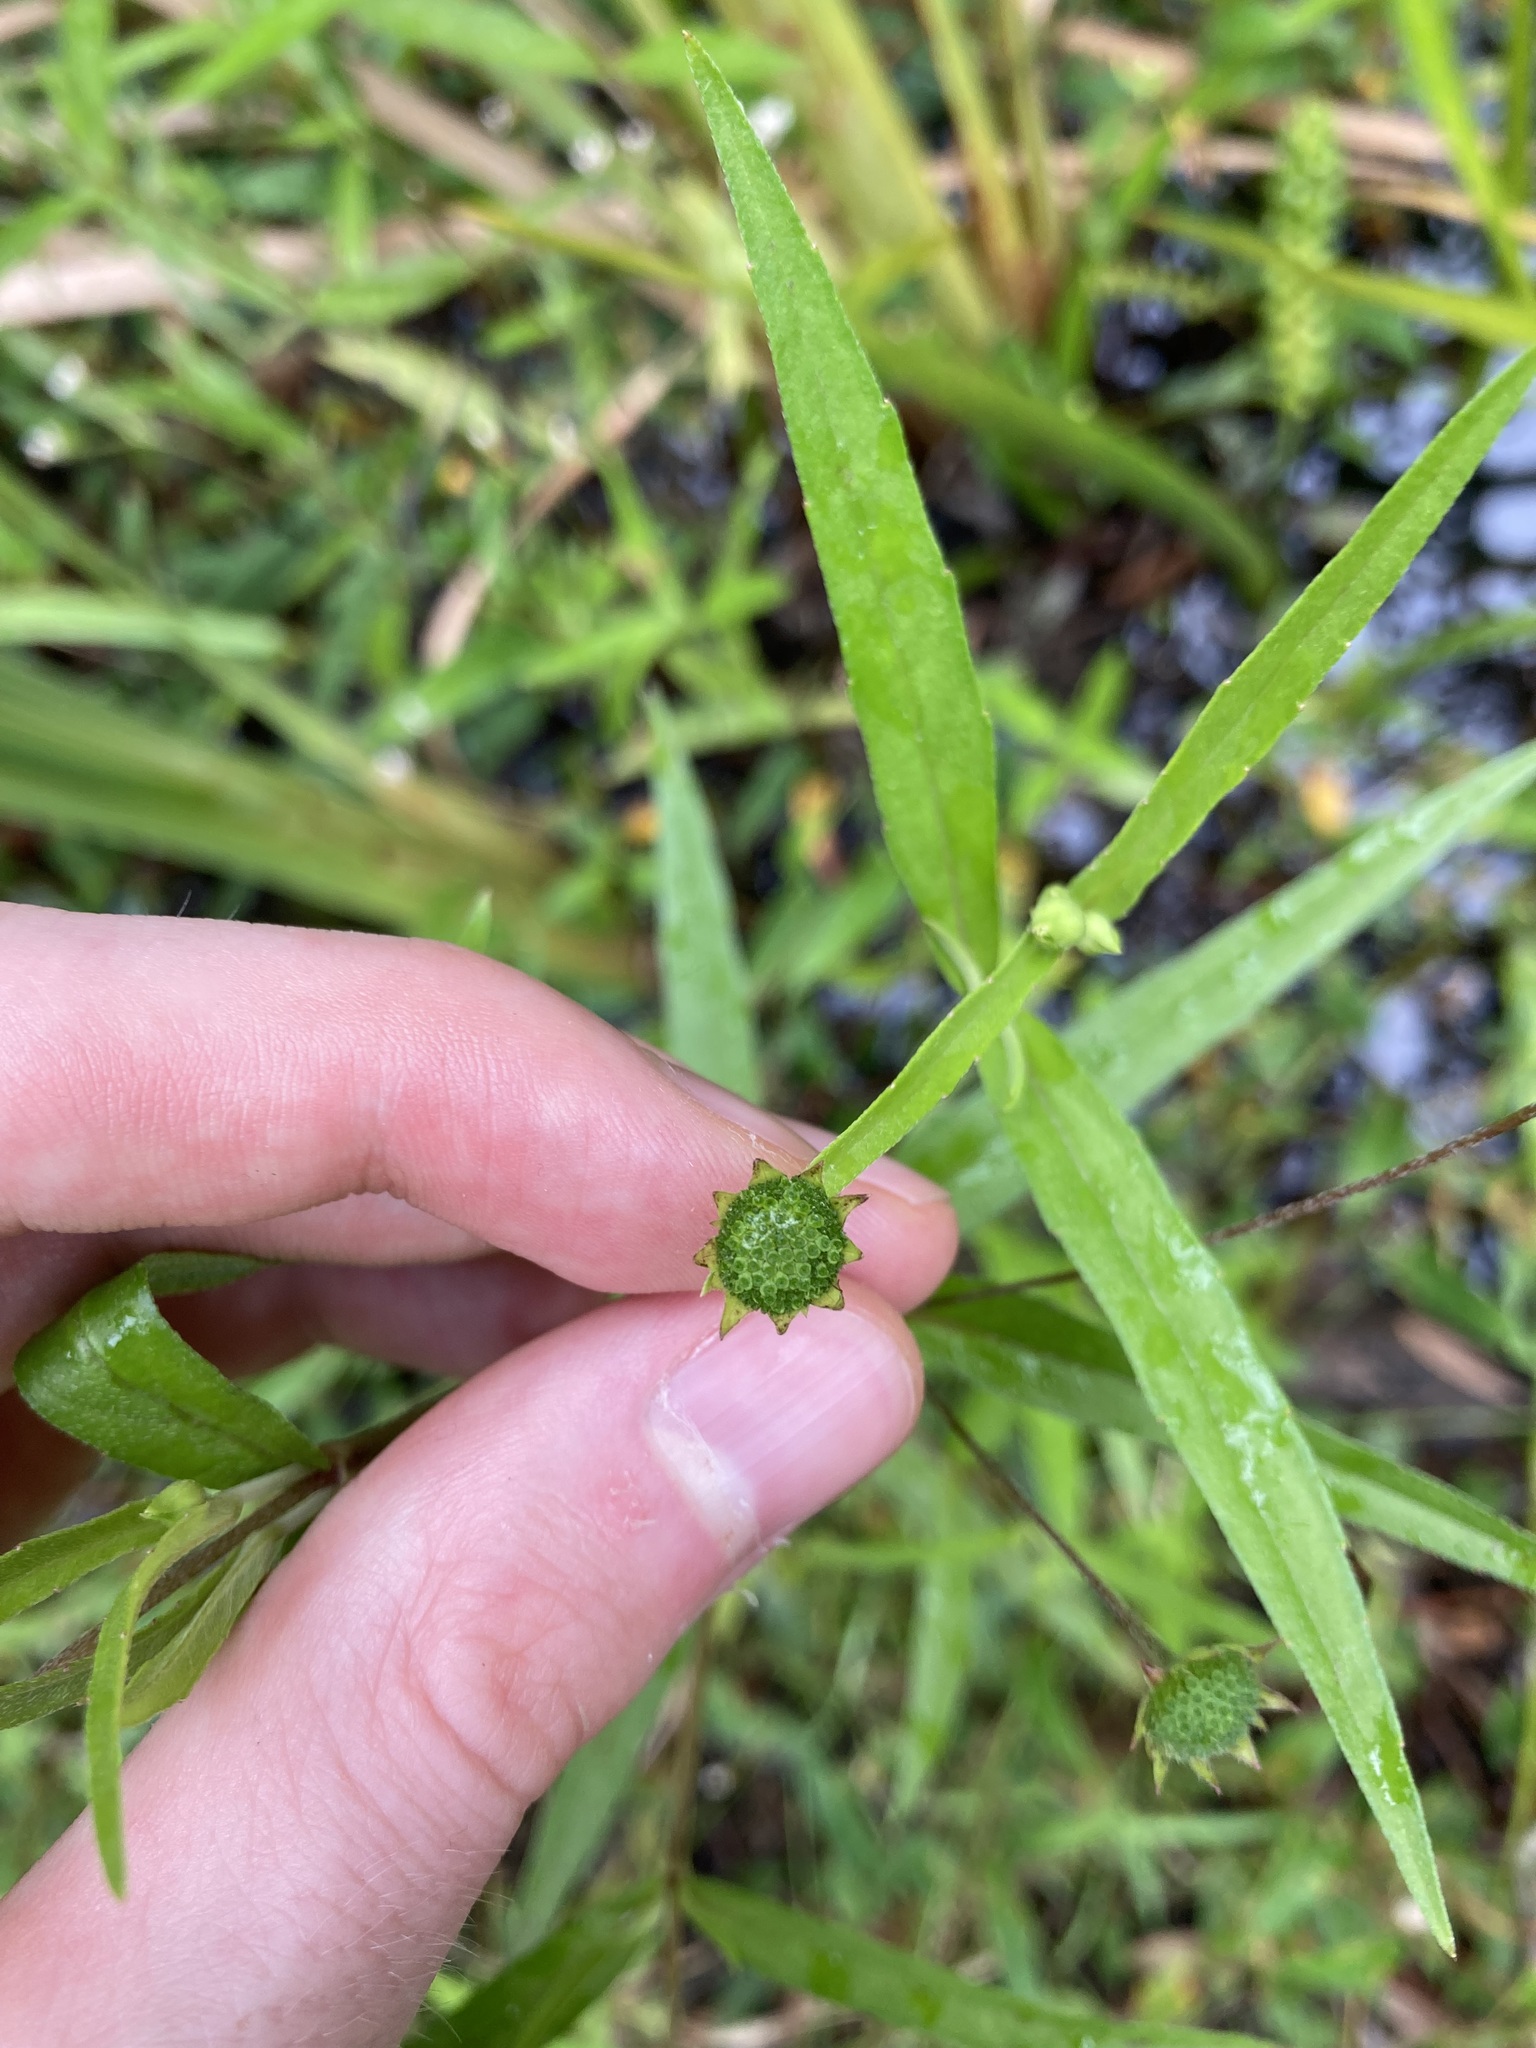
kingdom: Plantae
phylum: Tracheophyta
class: Magnoliopsida
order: Asterales
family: Asteraceae
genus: Eclipta
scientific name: Eclipta prostrata
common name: False daisy
